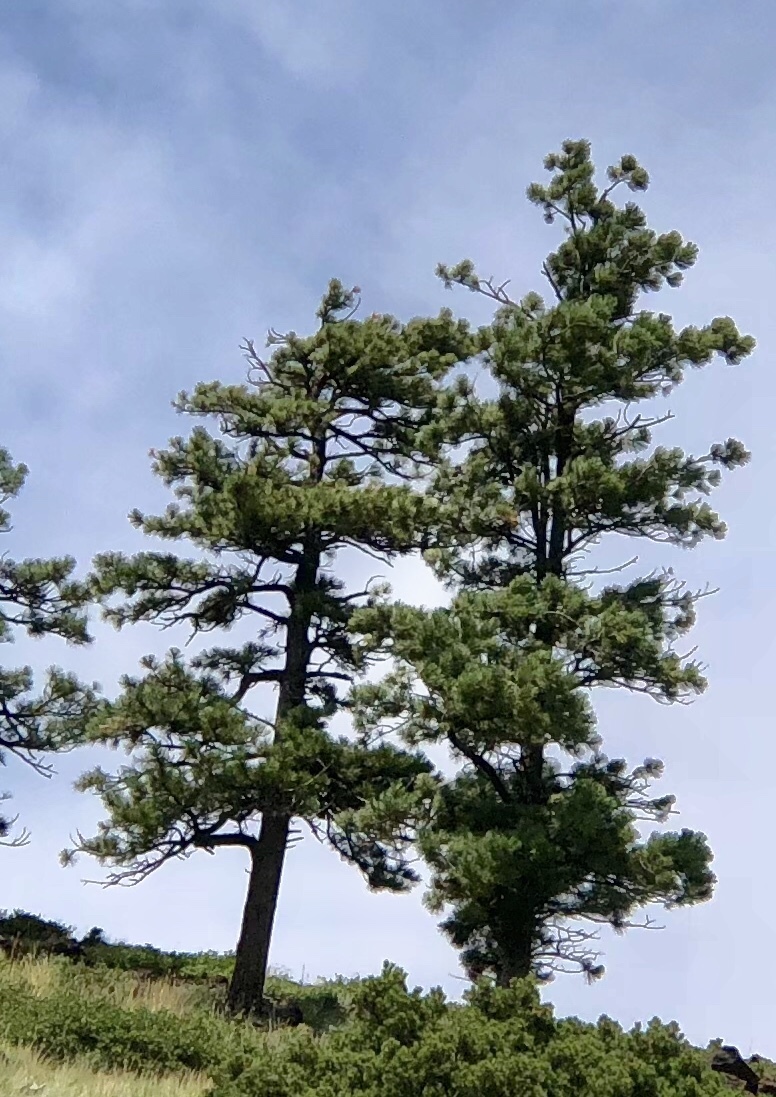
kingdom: Plantae
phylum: Tracheophyta
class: Pinopsida
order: Pinales
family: Pinaceae
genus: Pinus
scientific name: Pinus ponderosa
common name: Western yellow-pine
